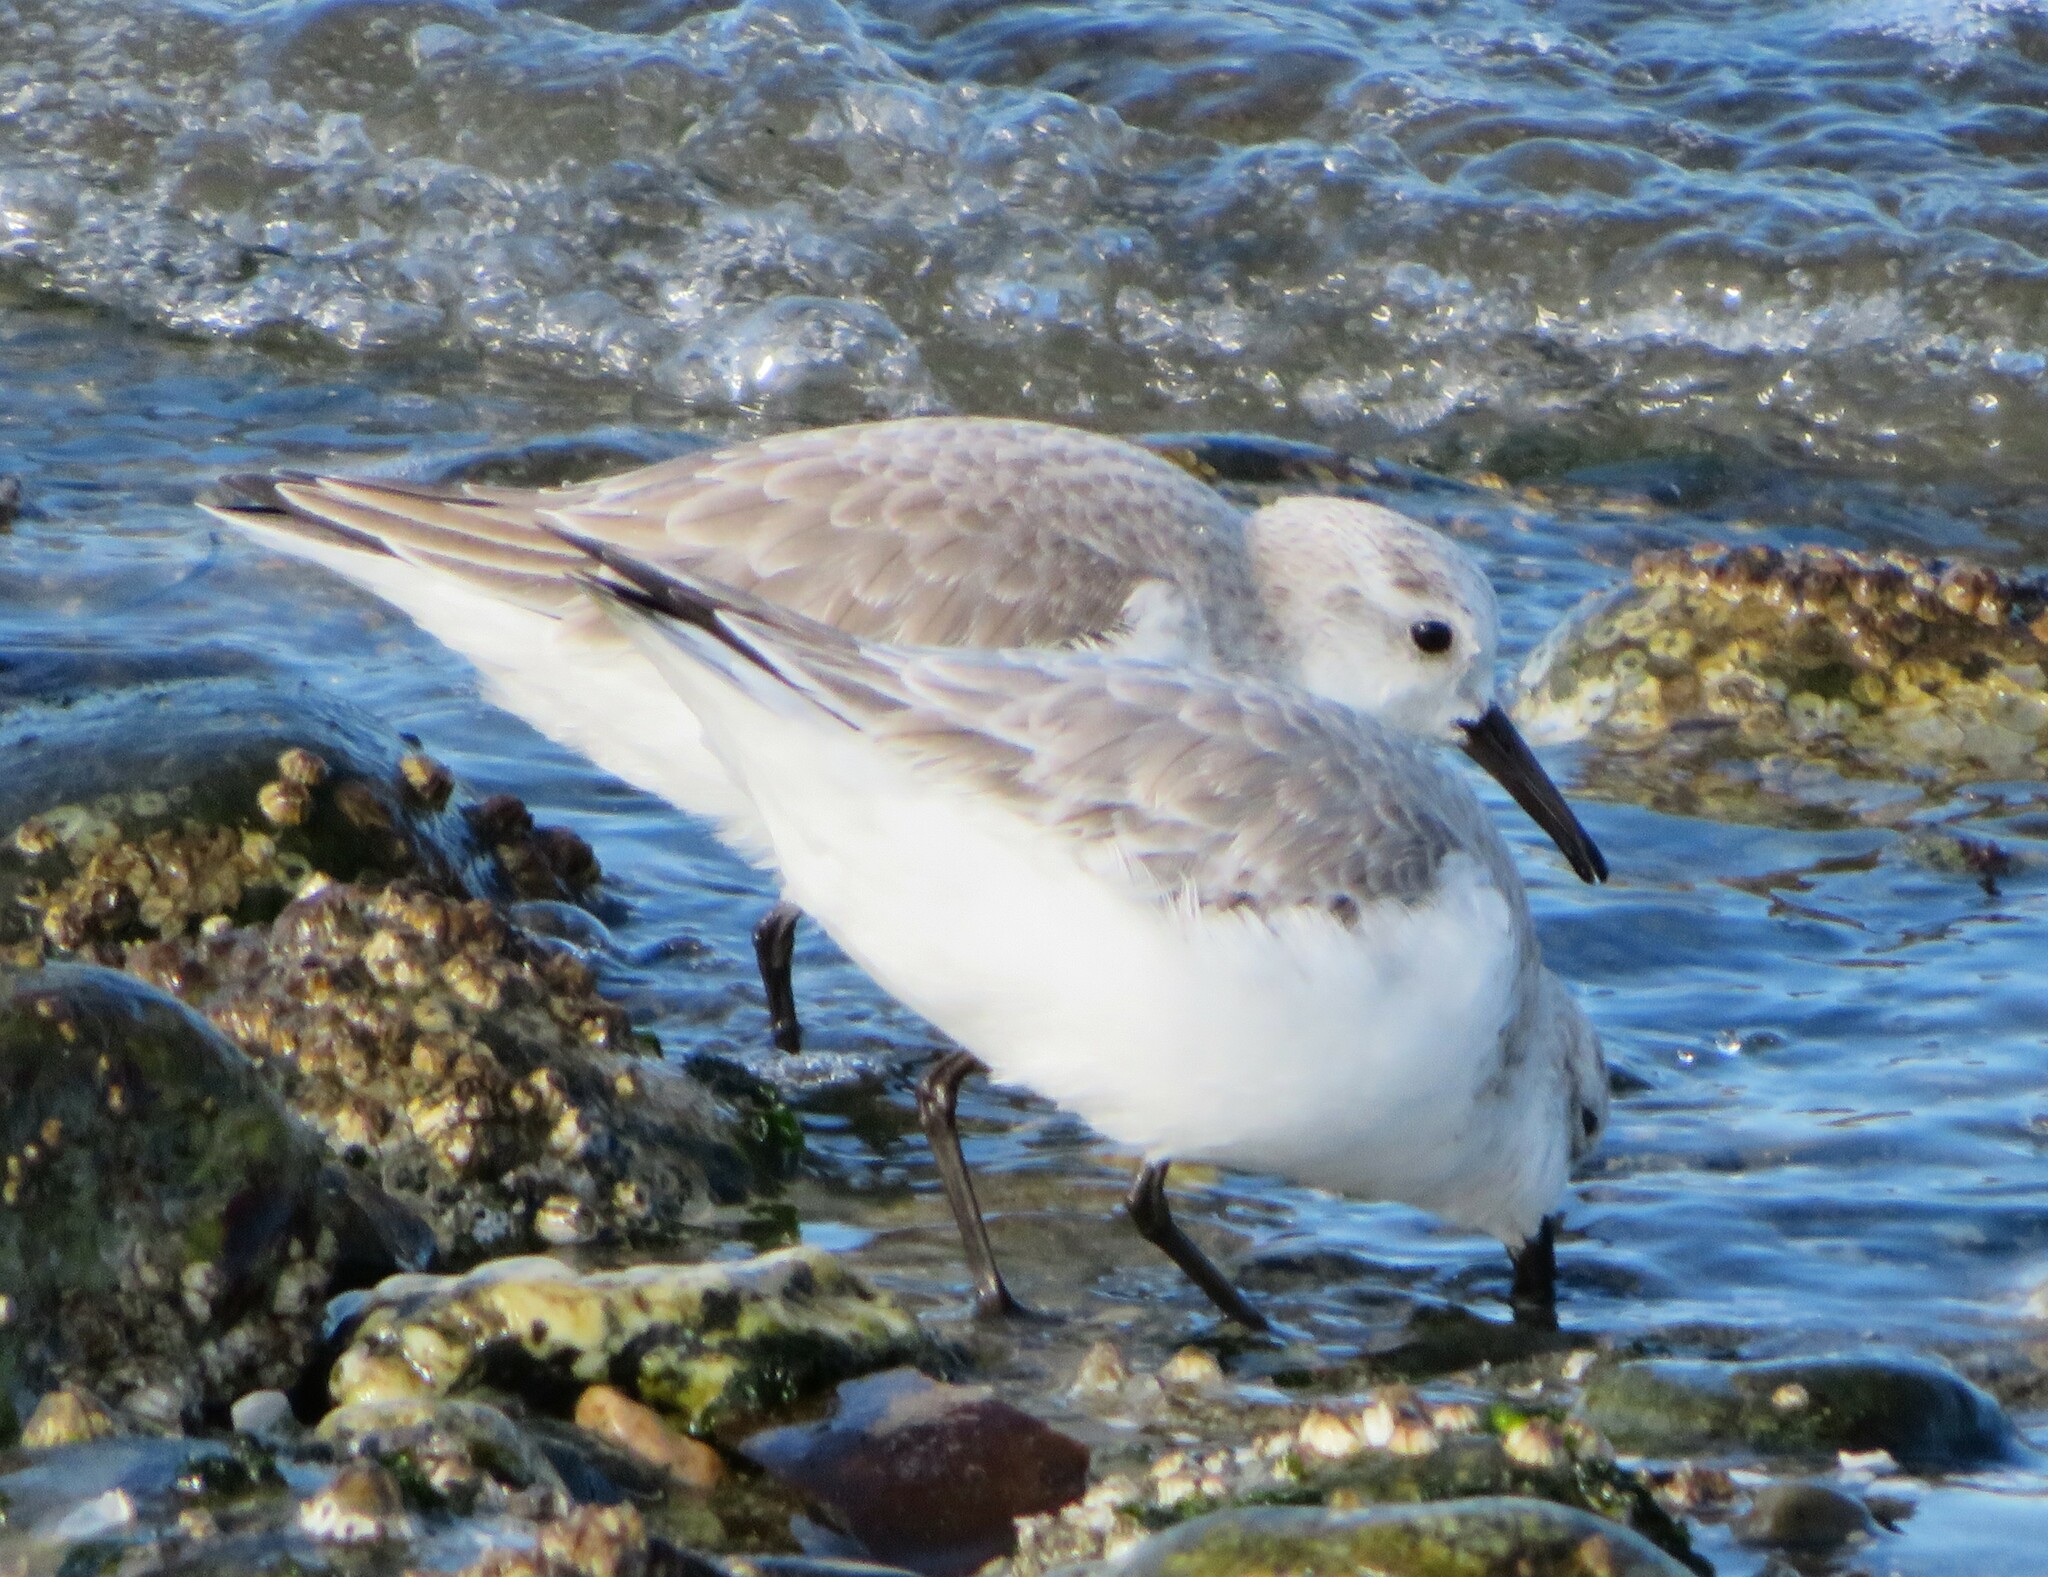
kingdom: Animalia
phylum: Chordata
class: Aves
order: Charadriiformes
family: Scolopacidae
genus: Calidris
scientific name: Calidris alba
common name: Sanderling
